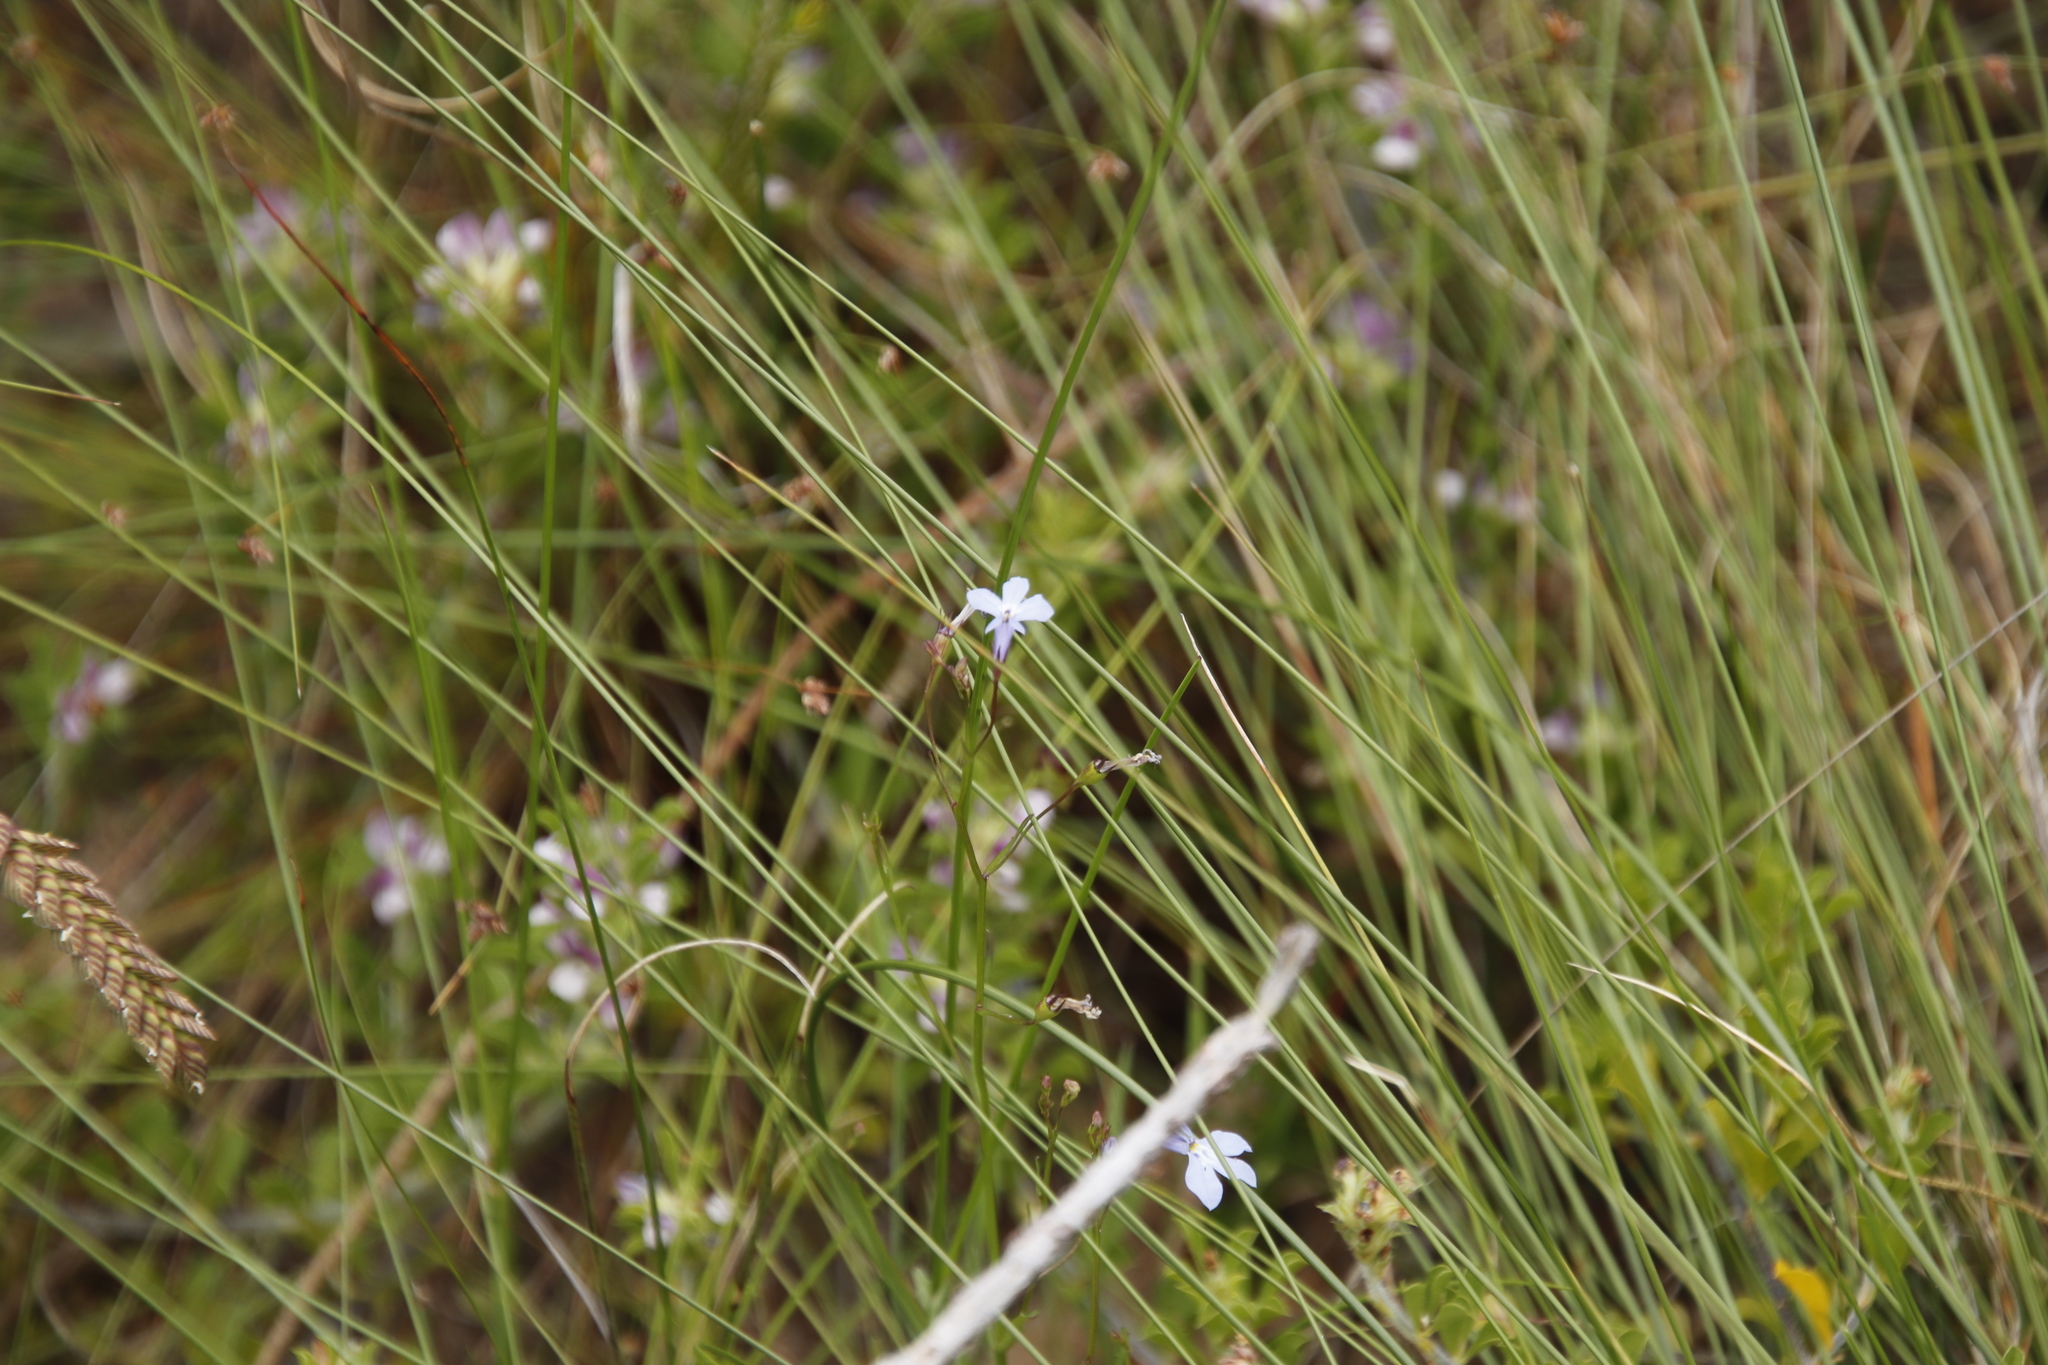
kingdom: Plantae
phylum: Tracheophyta
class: Magnoliopsida
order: Asterales
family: Campanulaceae
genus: Lobelia
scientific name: Lobelia erinus
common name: Edging lobelia
